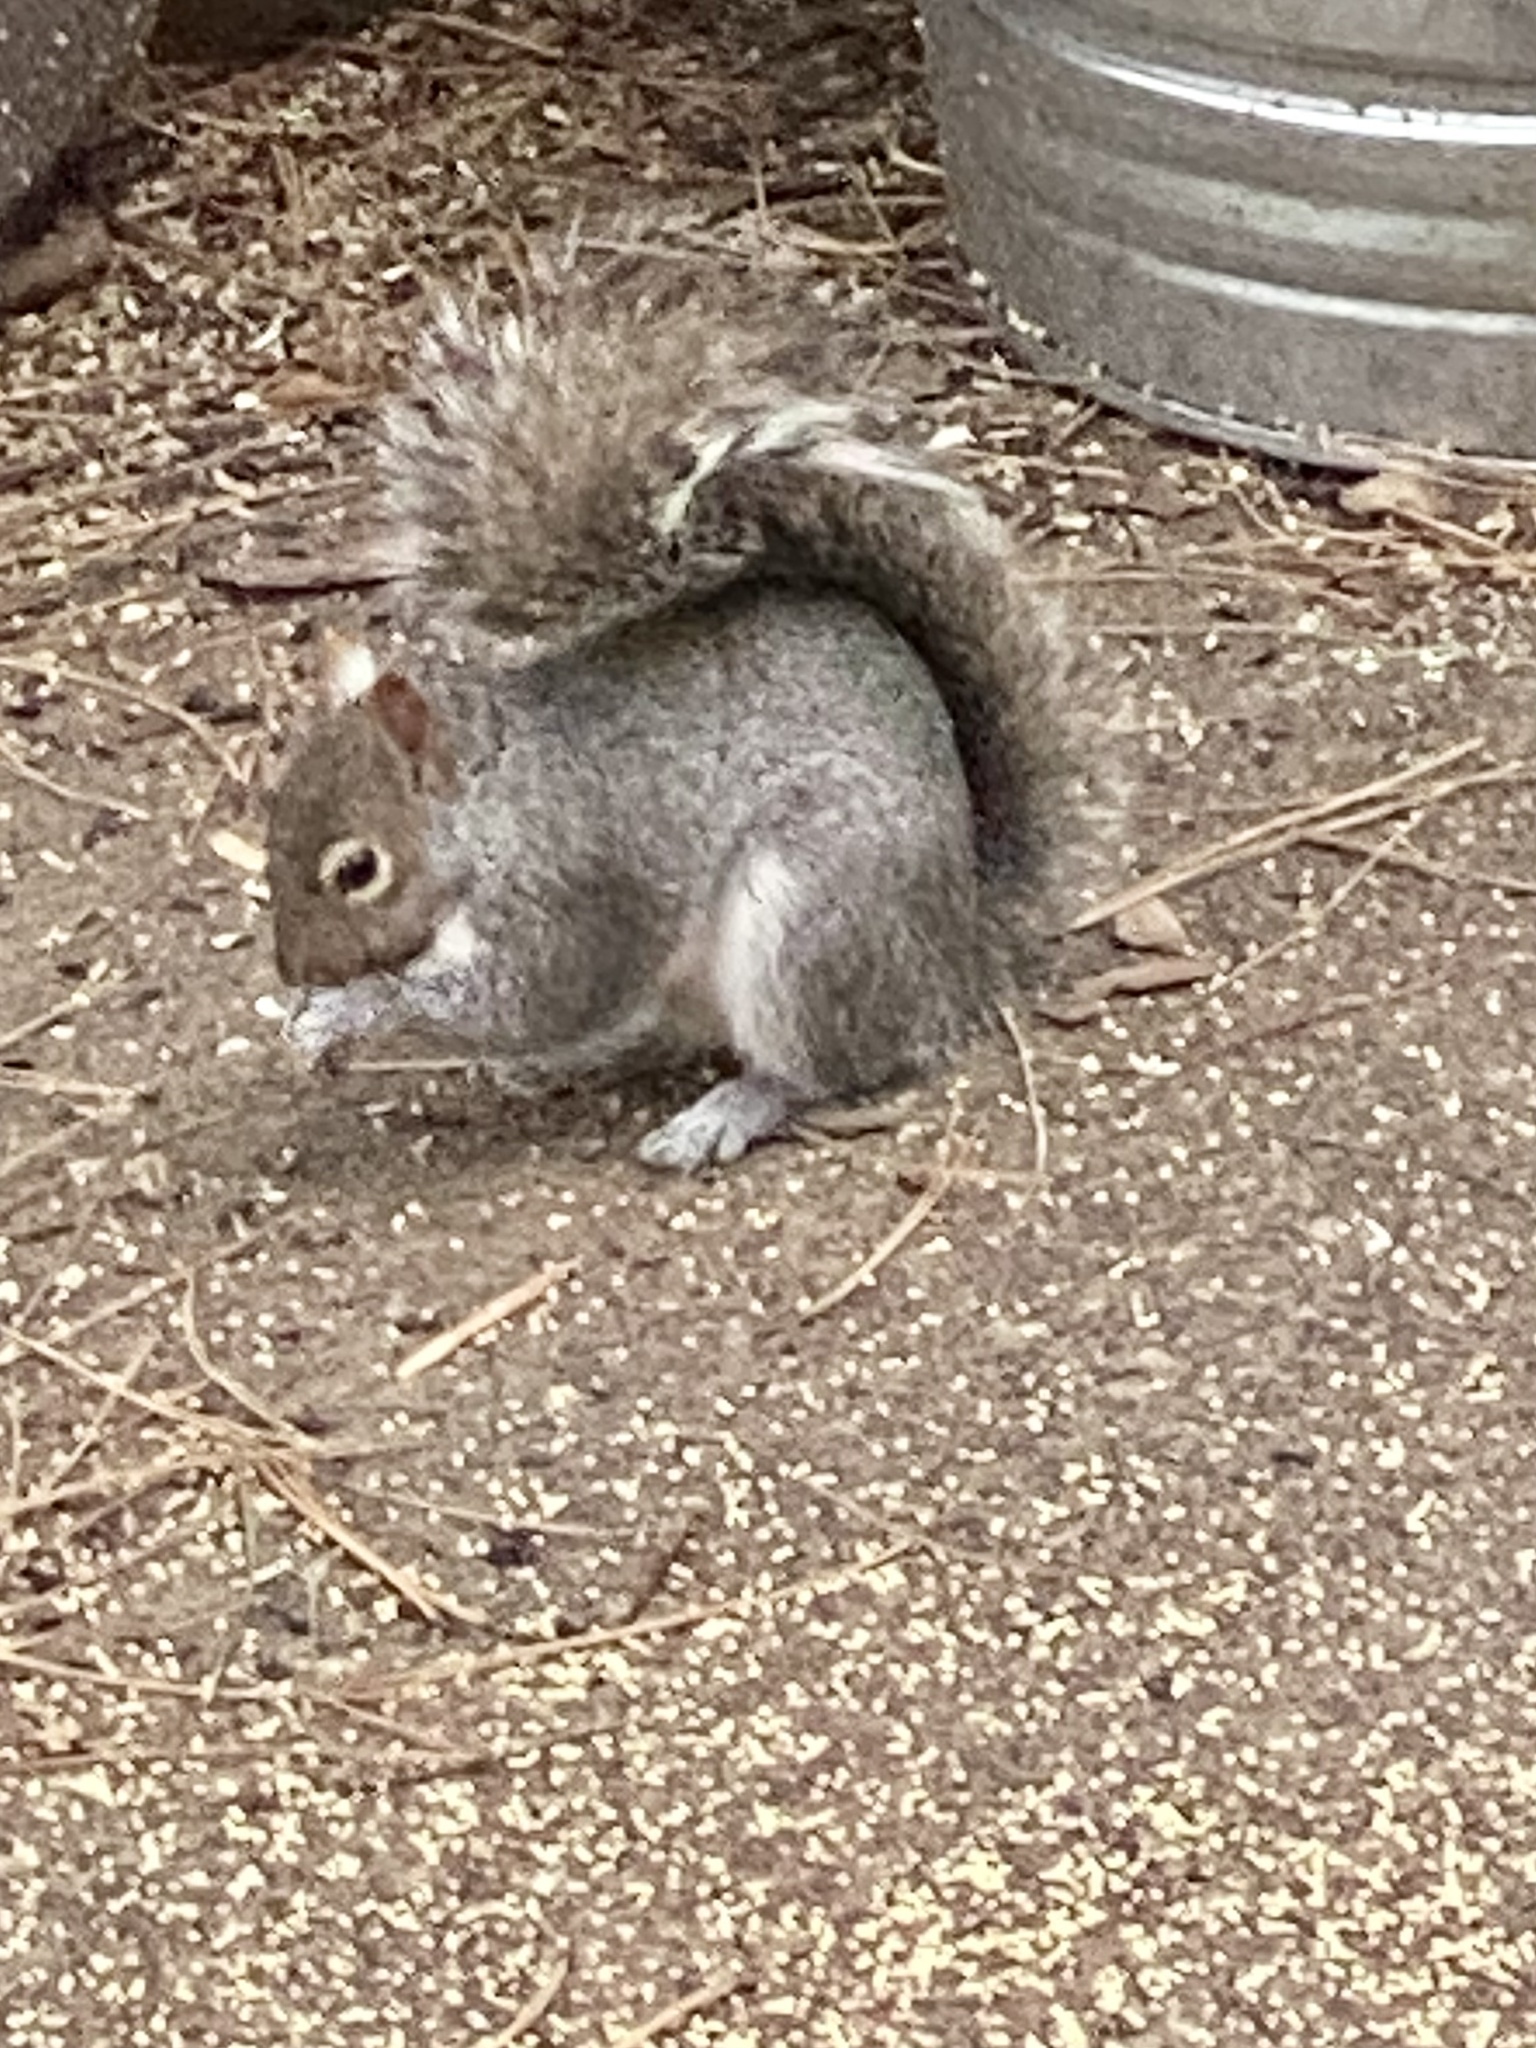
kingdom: Animalia
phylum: Chordata
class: Mammalia
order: Rodentia
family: Sciuridae
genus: Sciurus
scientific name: Sciurus carolinensis
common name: Eastern gray squirrel
